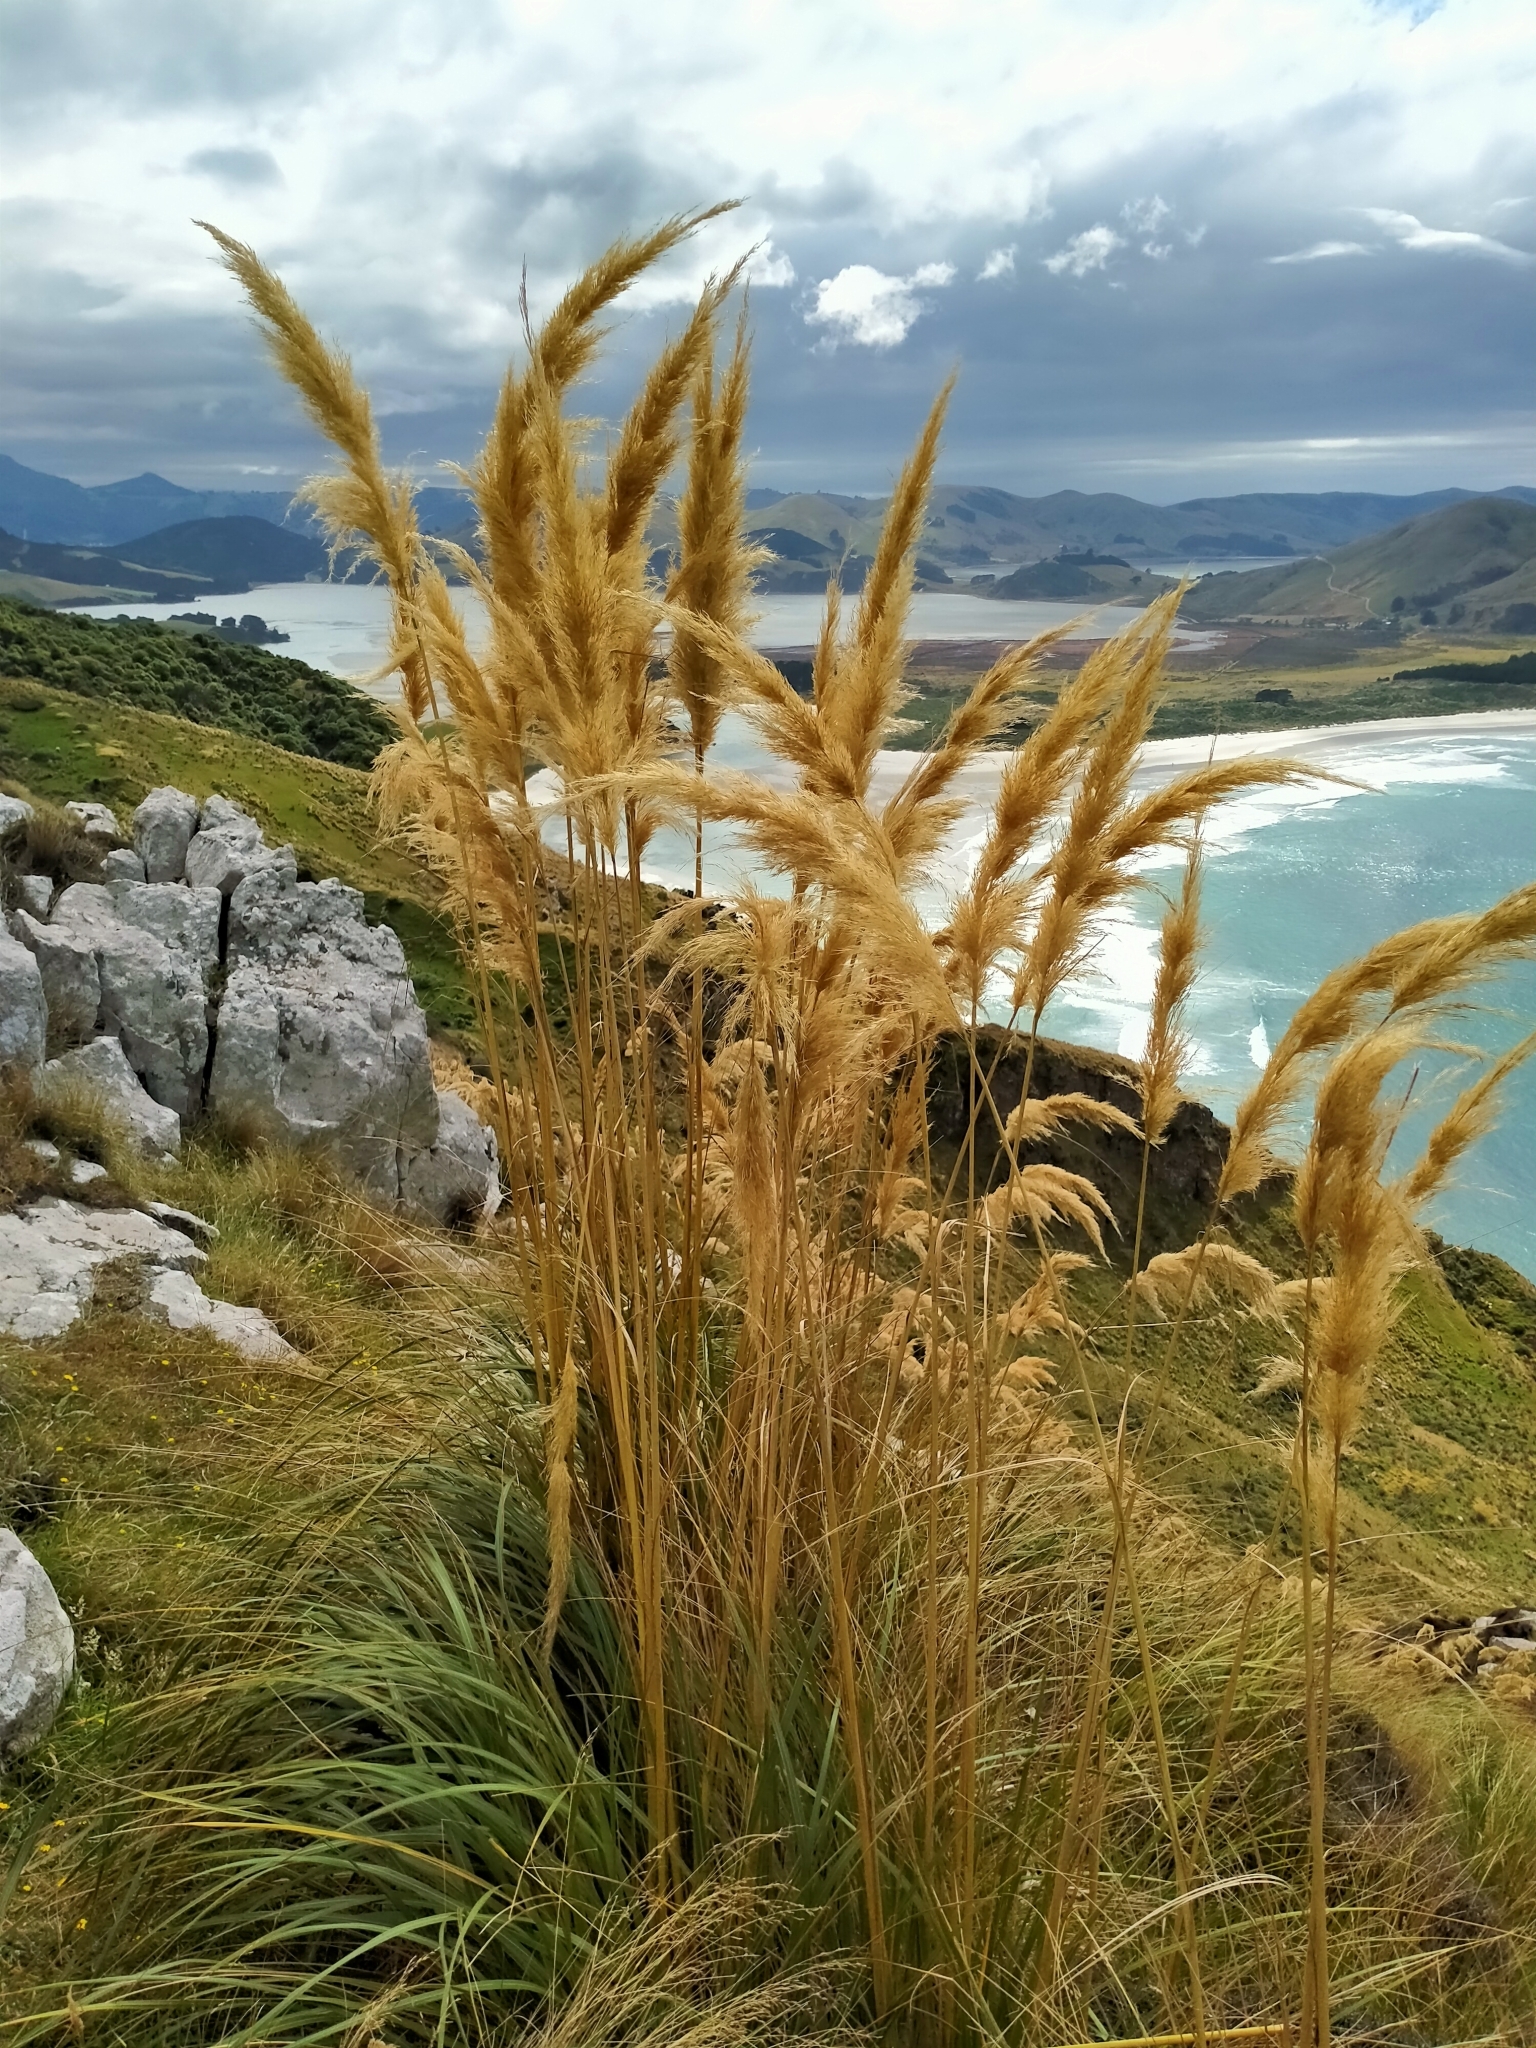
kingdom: Plantae
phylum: Tracheophyta
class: Liliopsida
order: Poales
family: Poaceae
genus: Austroderia
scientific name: Austroderia richardii
